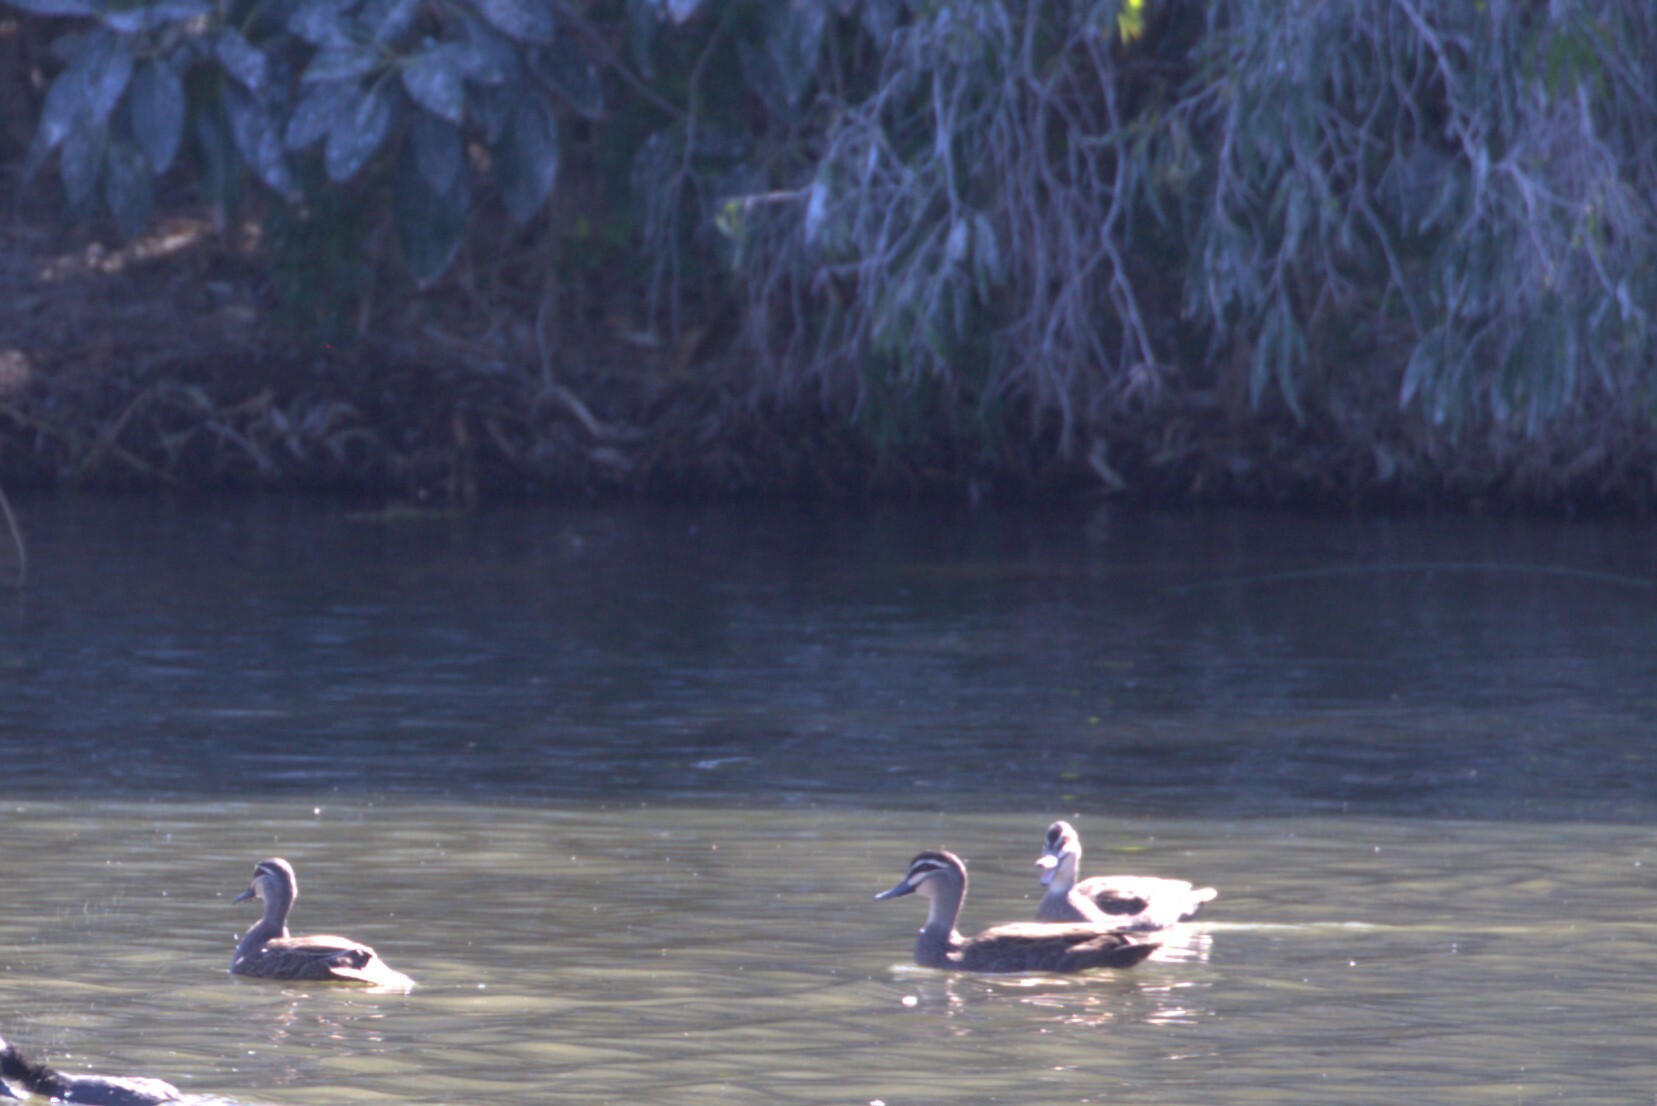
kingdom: Animalia
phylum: Chordata
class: Aves
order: Anseriformes
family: Anatidae
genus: Anas
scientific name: Anas superciliosa
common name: Pacific black duck
